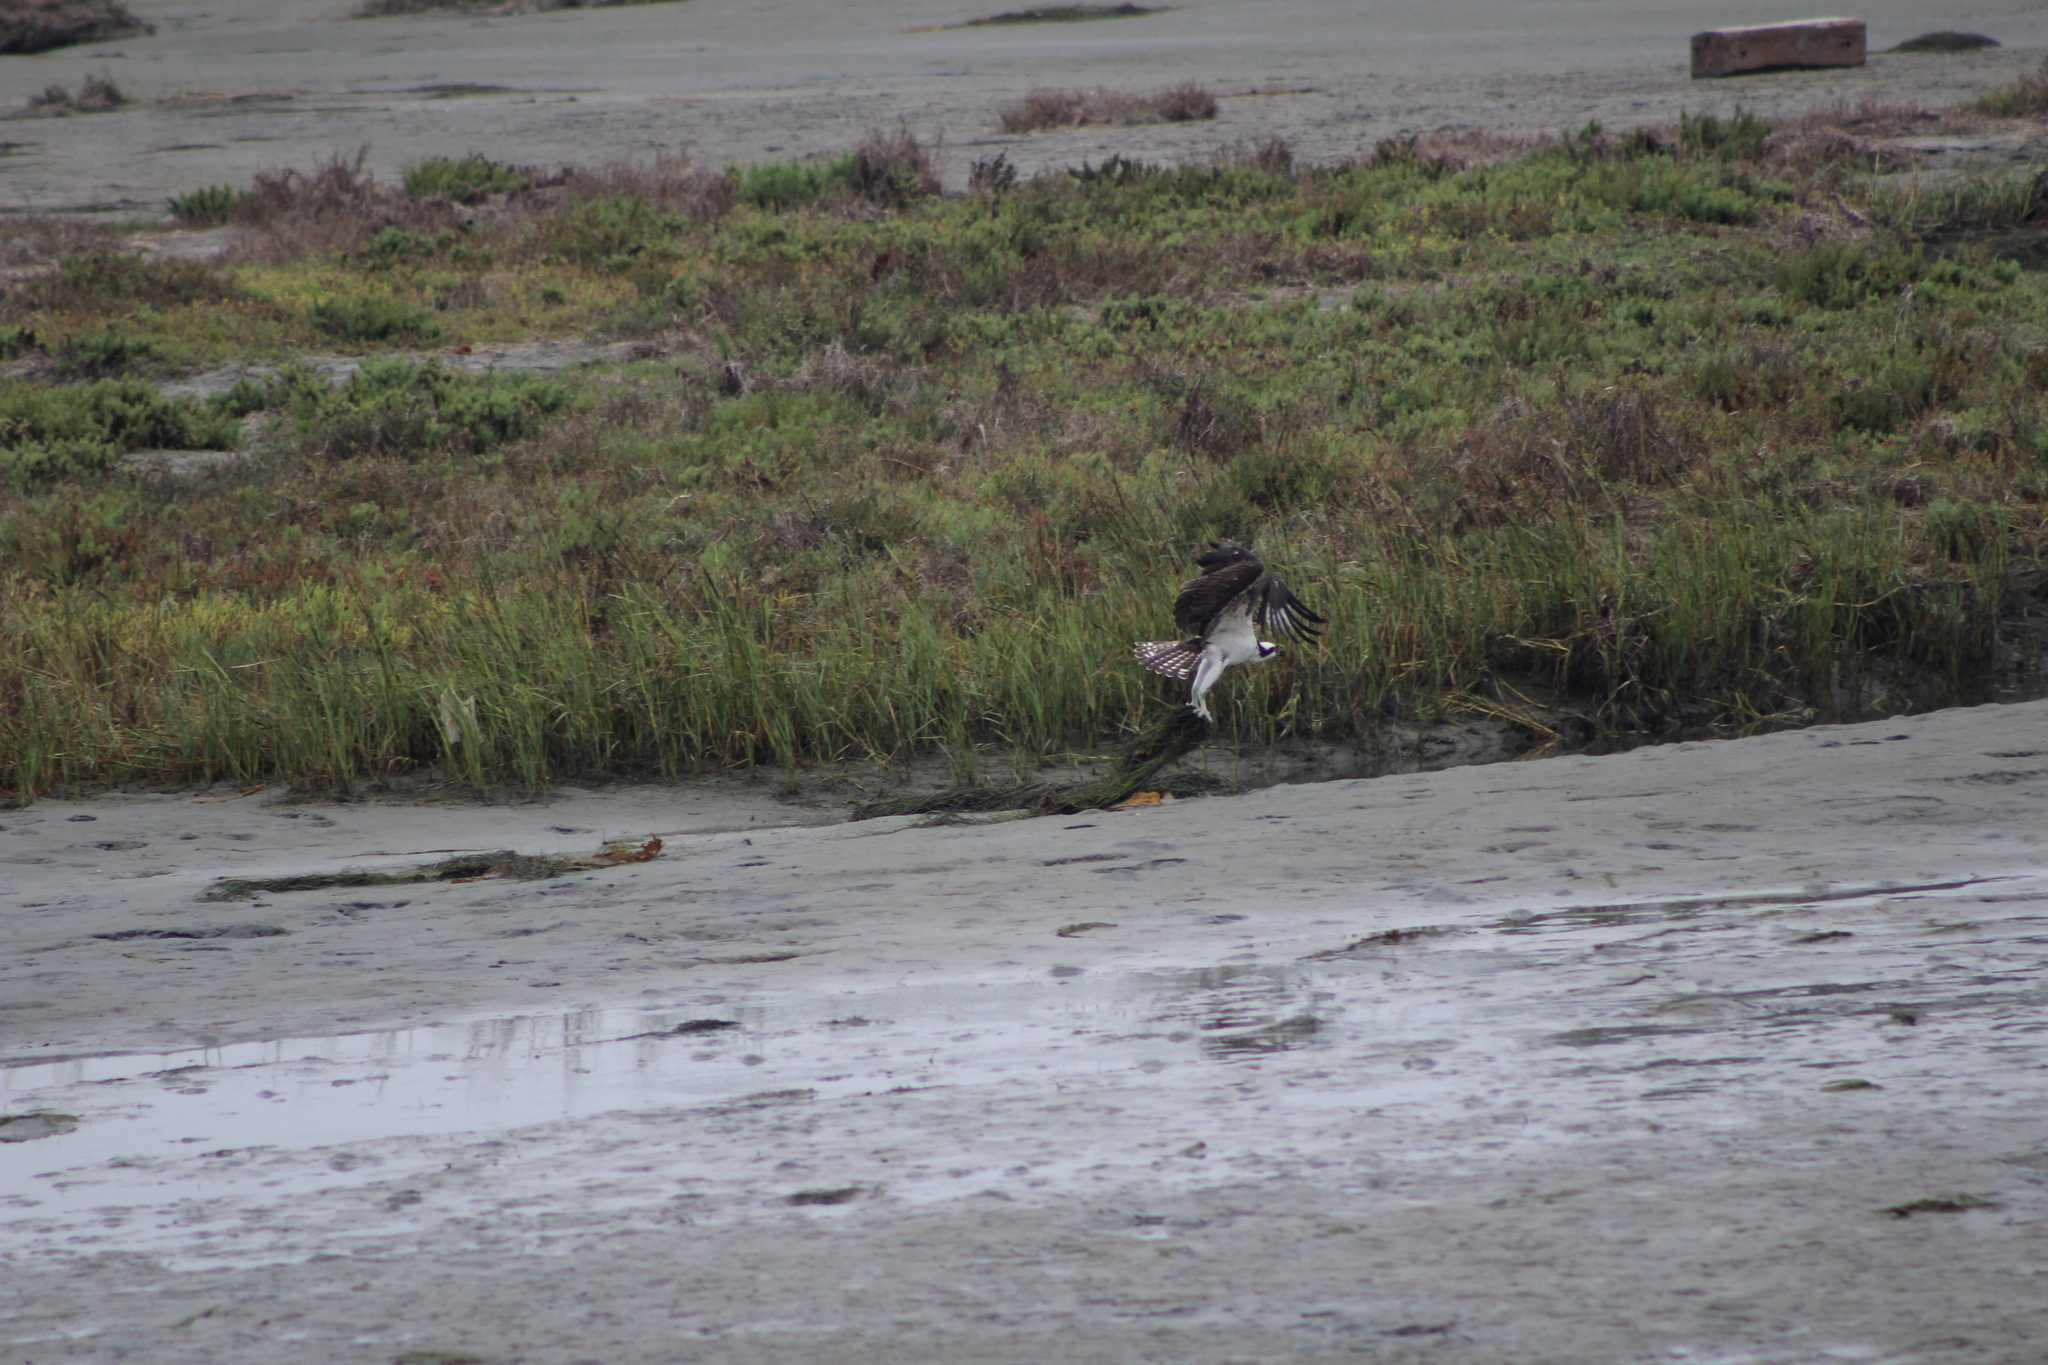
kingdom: Animalia
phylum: Chordata
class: Aves
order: Accipitriformes
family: Pandionidae
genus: Pandion
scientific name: Pandion haliaetus
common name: Osprey
